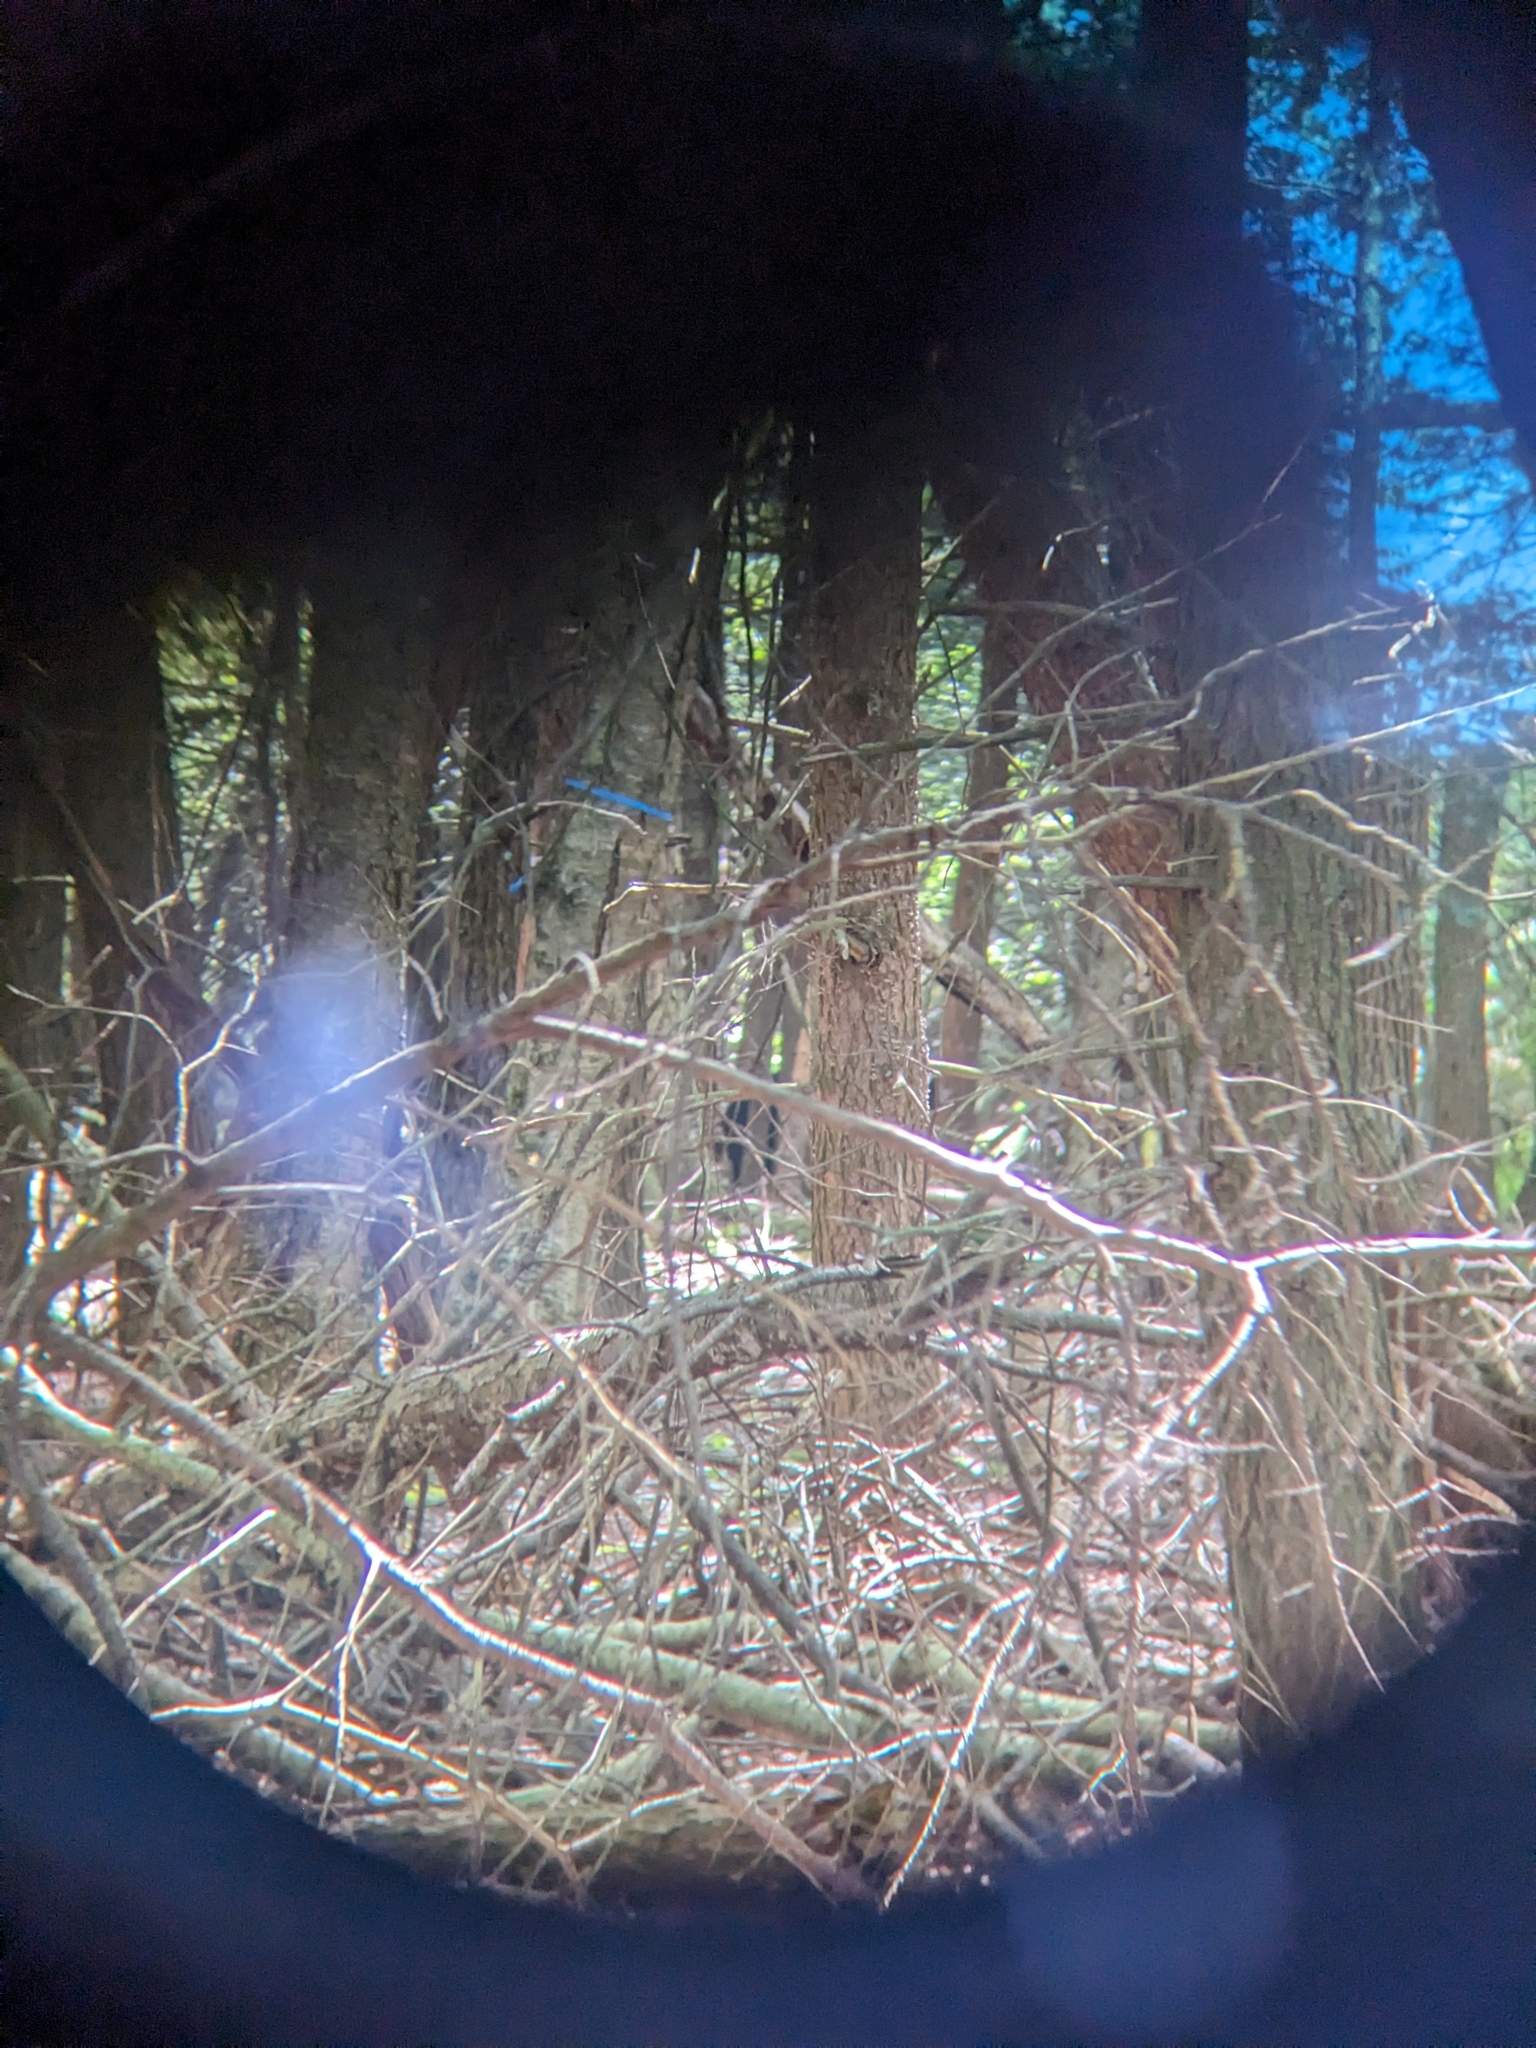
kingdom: Animalia
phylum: Chordata
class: Mammalia
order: Carnivora
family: Ursidae
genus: Ursus
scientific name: Ursus americanus
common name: American black bear
